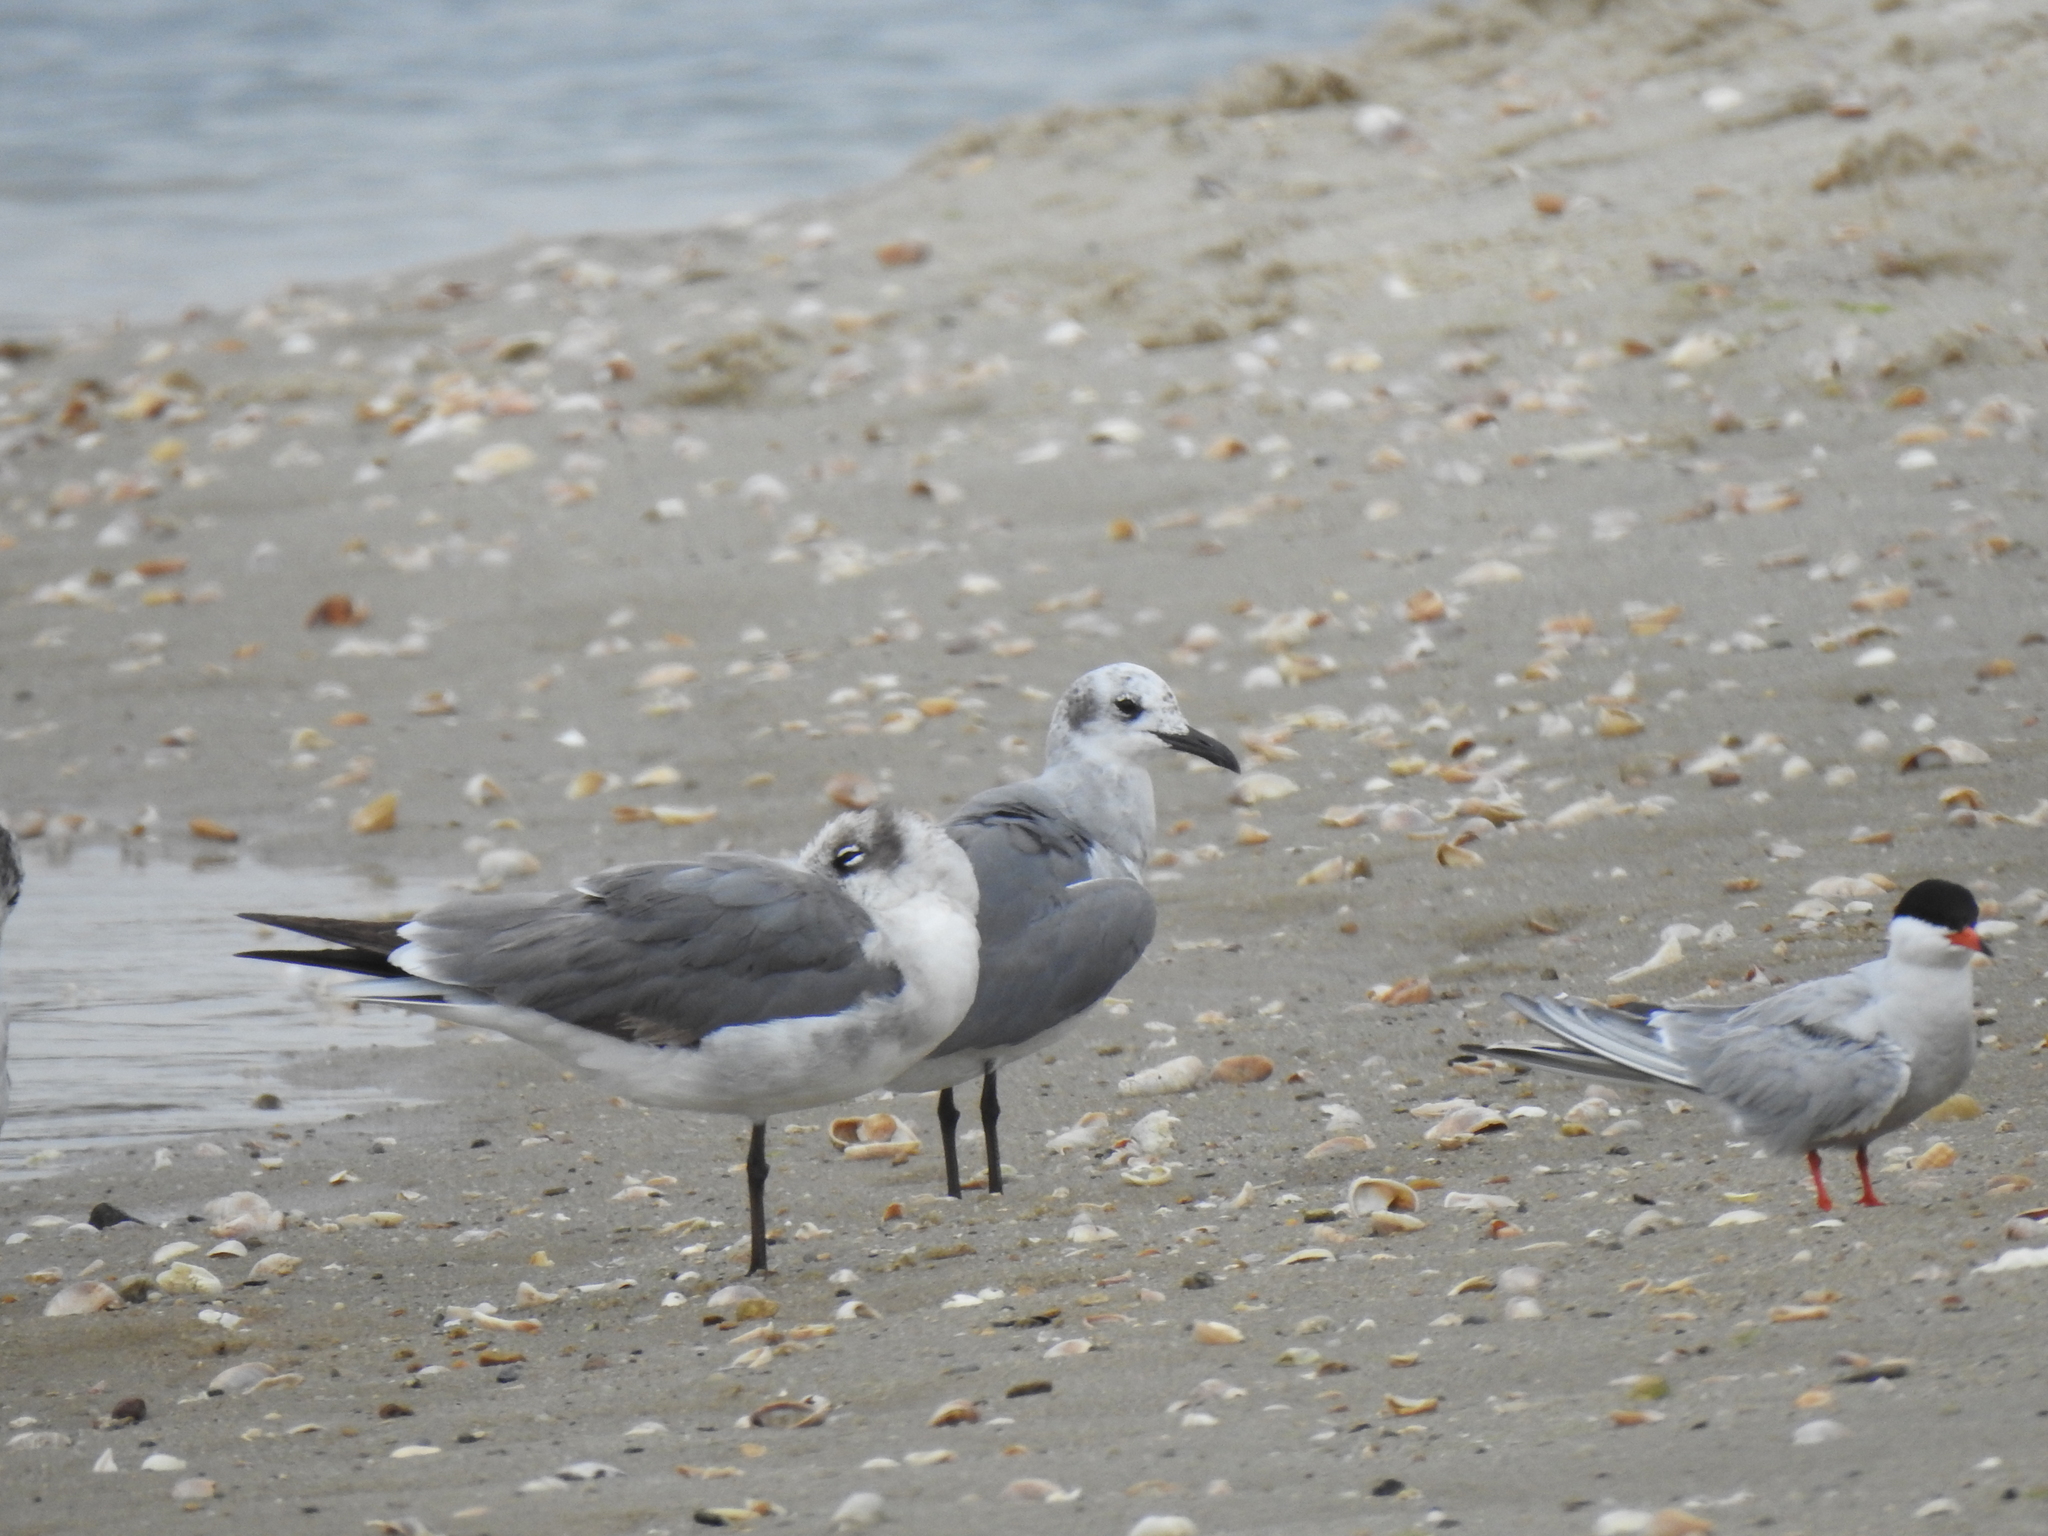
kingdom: Animalia
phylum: Chordata
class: Aves
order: Charadriiformes
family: Laridae
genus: Leucophaeus
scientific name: Leucophaeus atricilla
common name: Laughing gull
